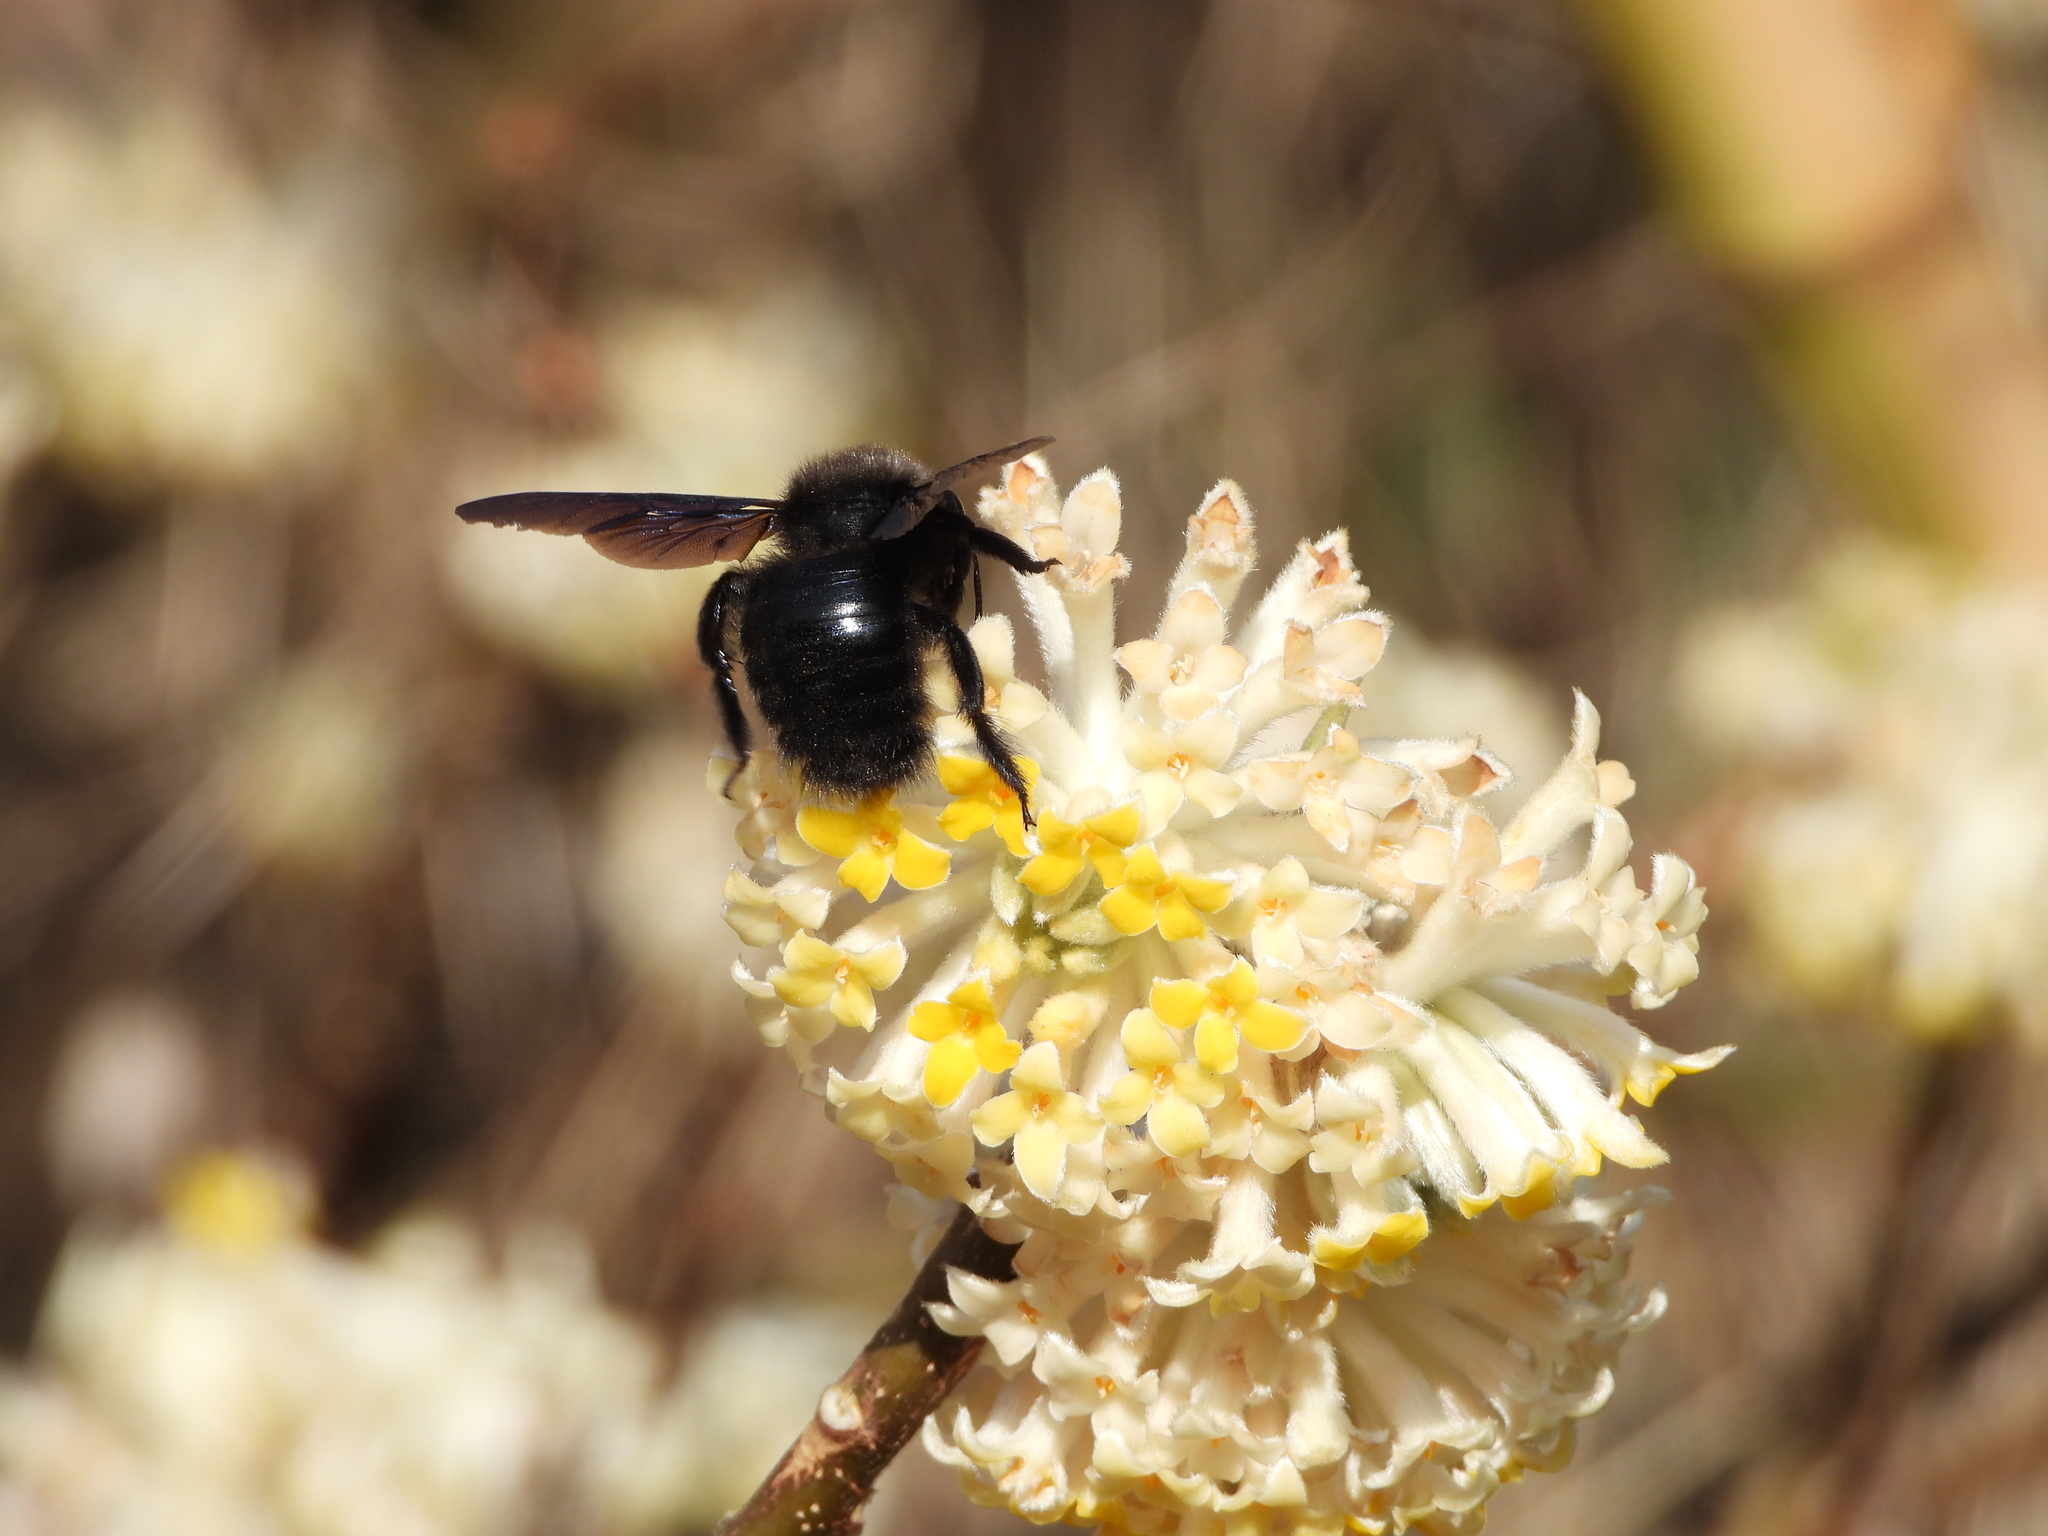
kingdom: Animalia
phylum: Arthropoda
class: Insecta
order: Hymenoptera
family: Apidae
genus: Xylocopa
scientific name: Xylocopa violacea
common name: Violet carpenter bee
